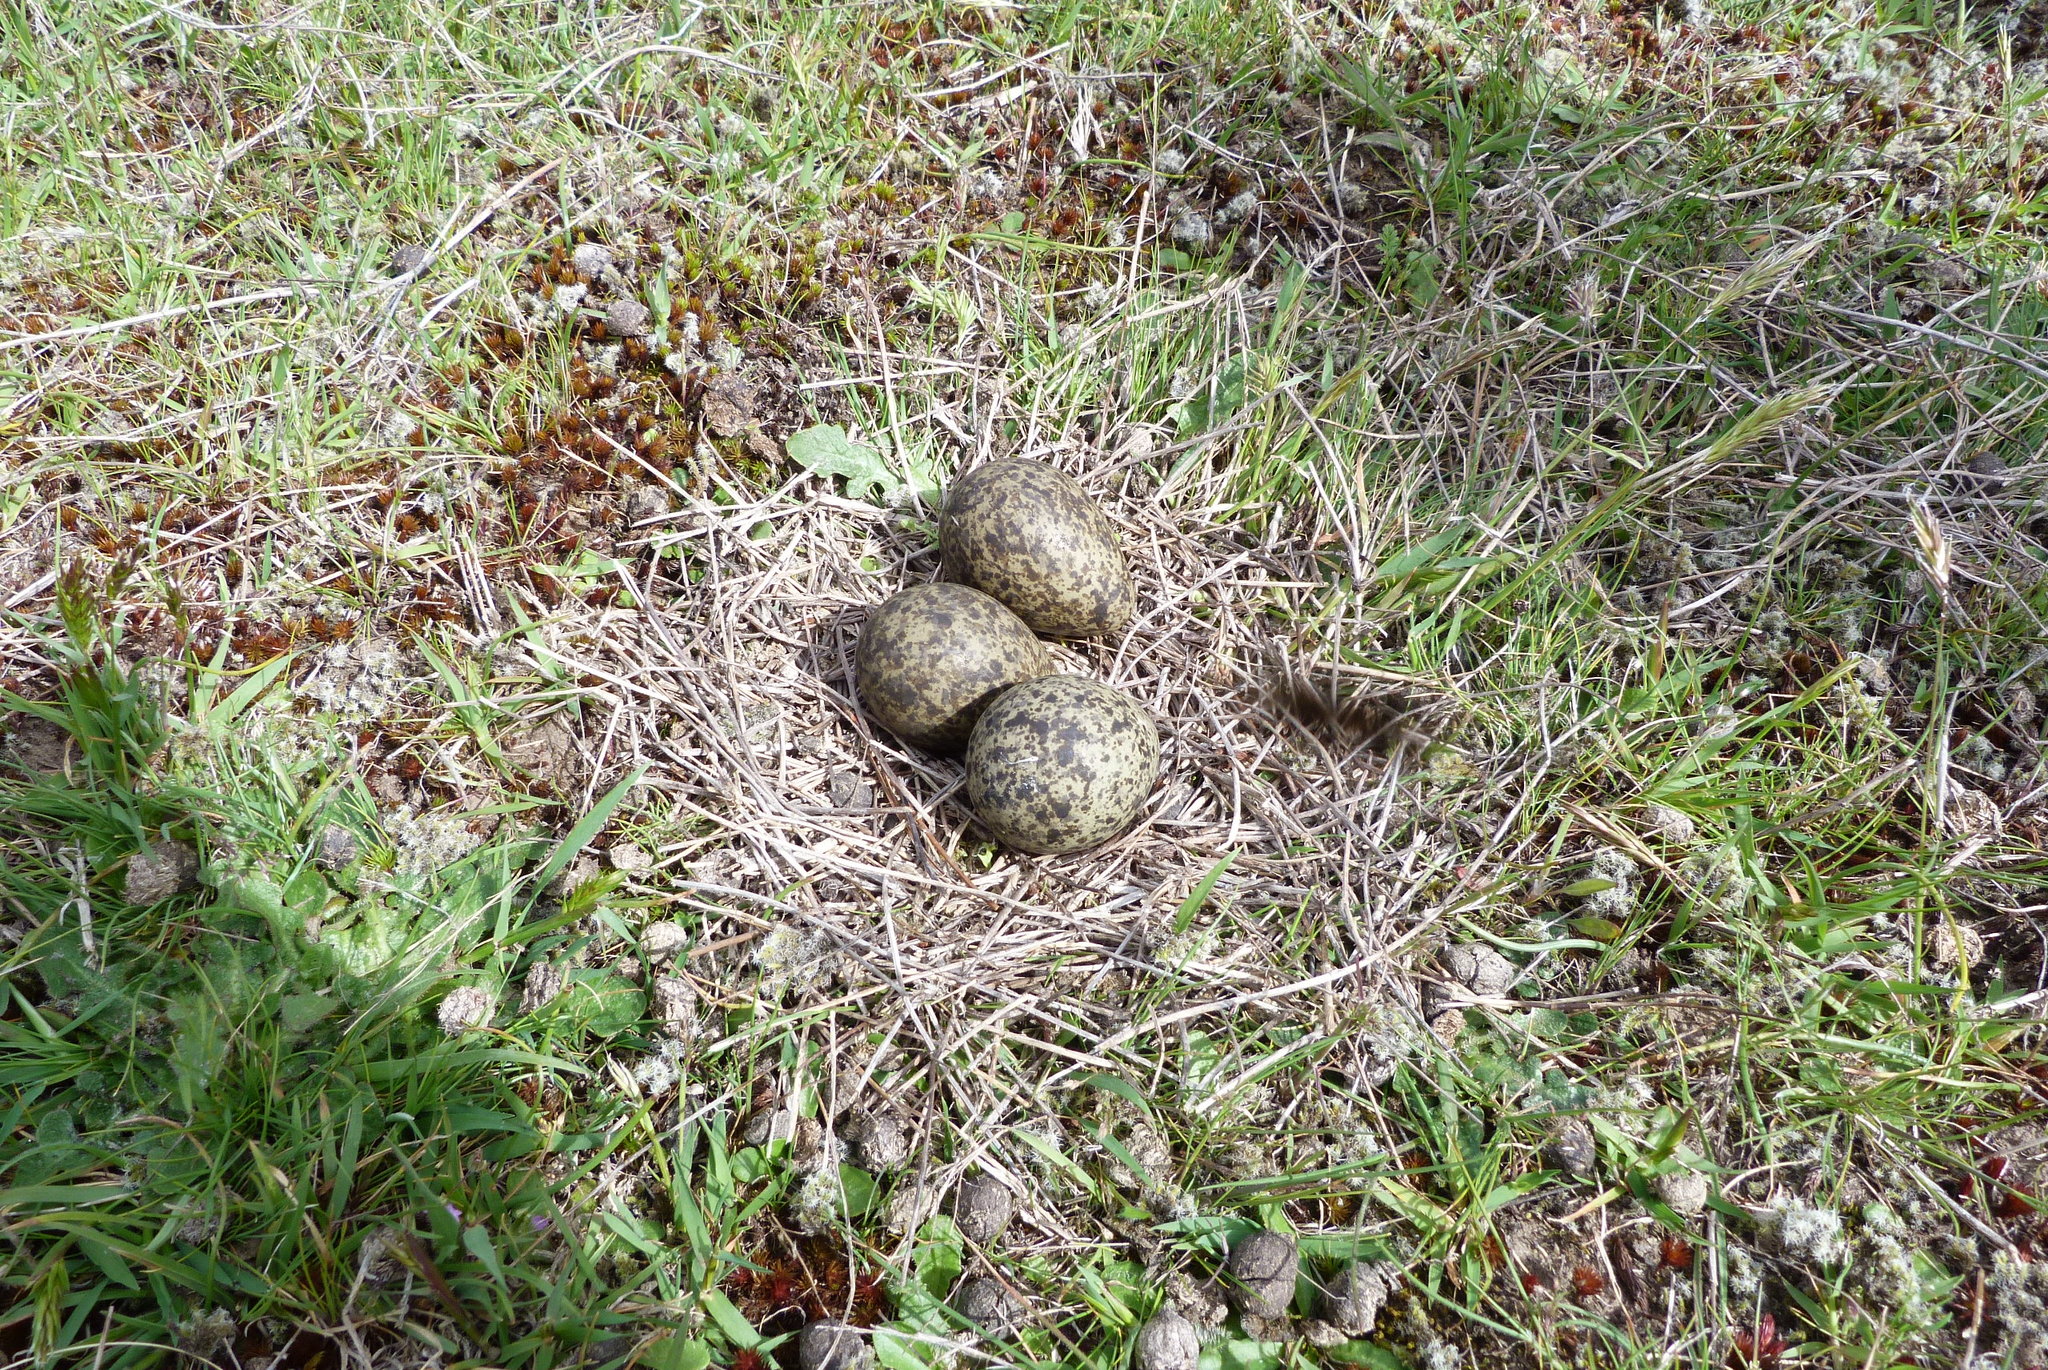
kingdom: Animalia
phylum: Chordata
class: Aves
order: Charadriiformes
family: Charadriidae
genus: Vanellus
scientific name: Vanellus miles
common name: Masked lapwing
